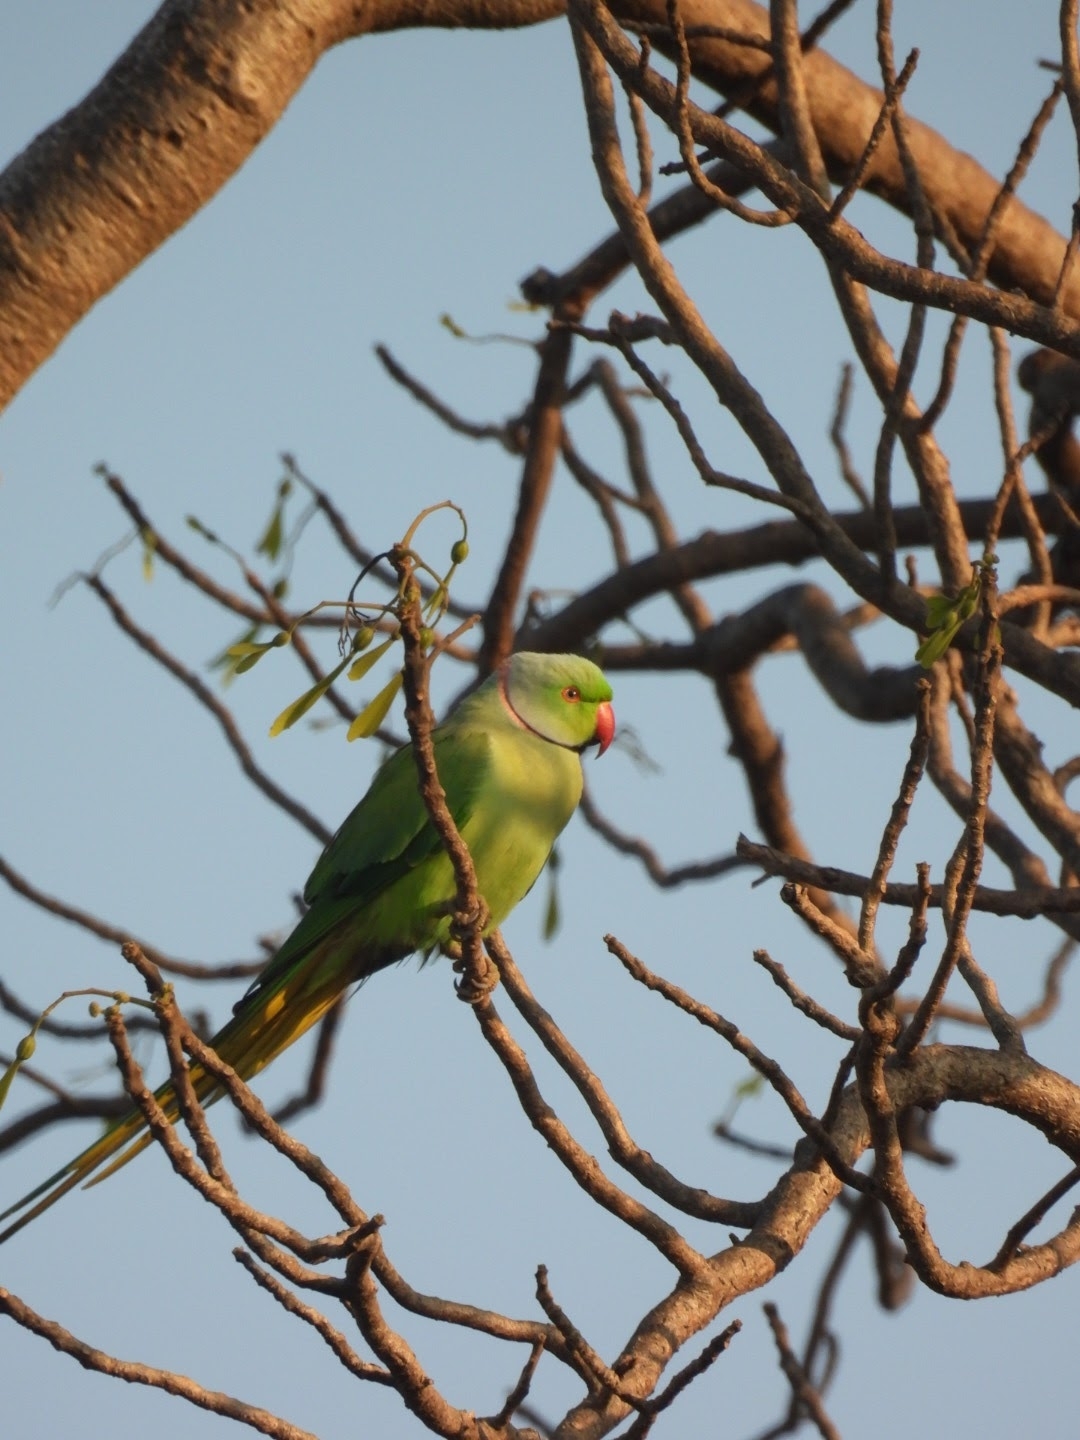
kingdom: Animalia
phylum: Chordata
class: Aves
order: Psittaciformes
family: Psittacidae
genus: Psittacula
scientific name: Psittacula krameri
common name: Rose-ringed parakeet
